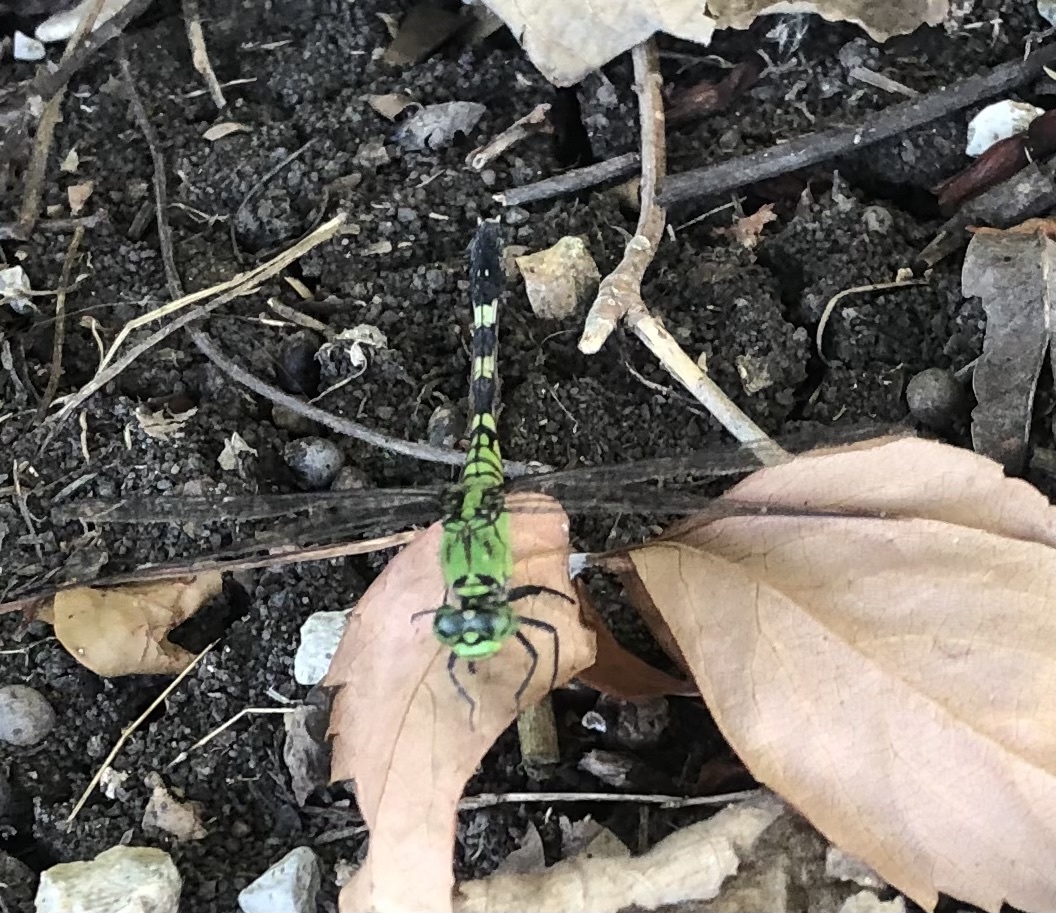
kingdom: Animalia
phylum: Arthropoda
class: Insecta
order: Odonata
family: Libellulidae
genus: Erythemis
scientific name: Erythemis simplicicollis
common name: Eastern pondhawk
